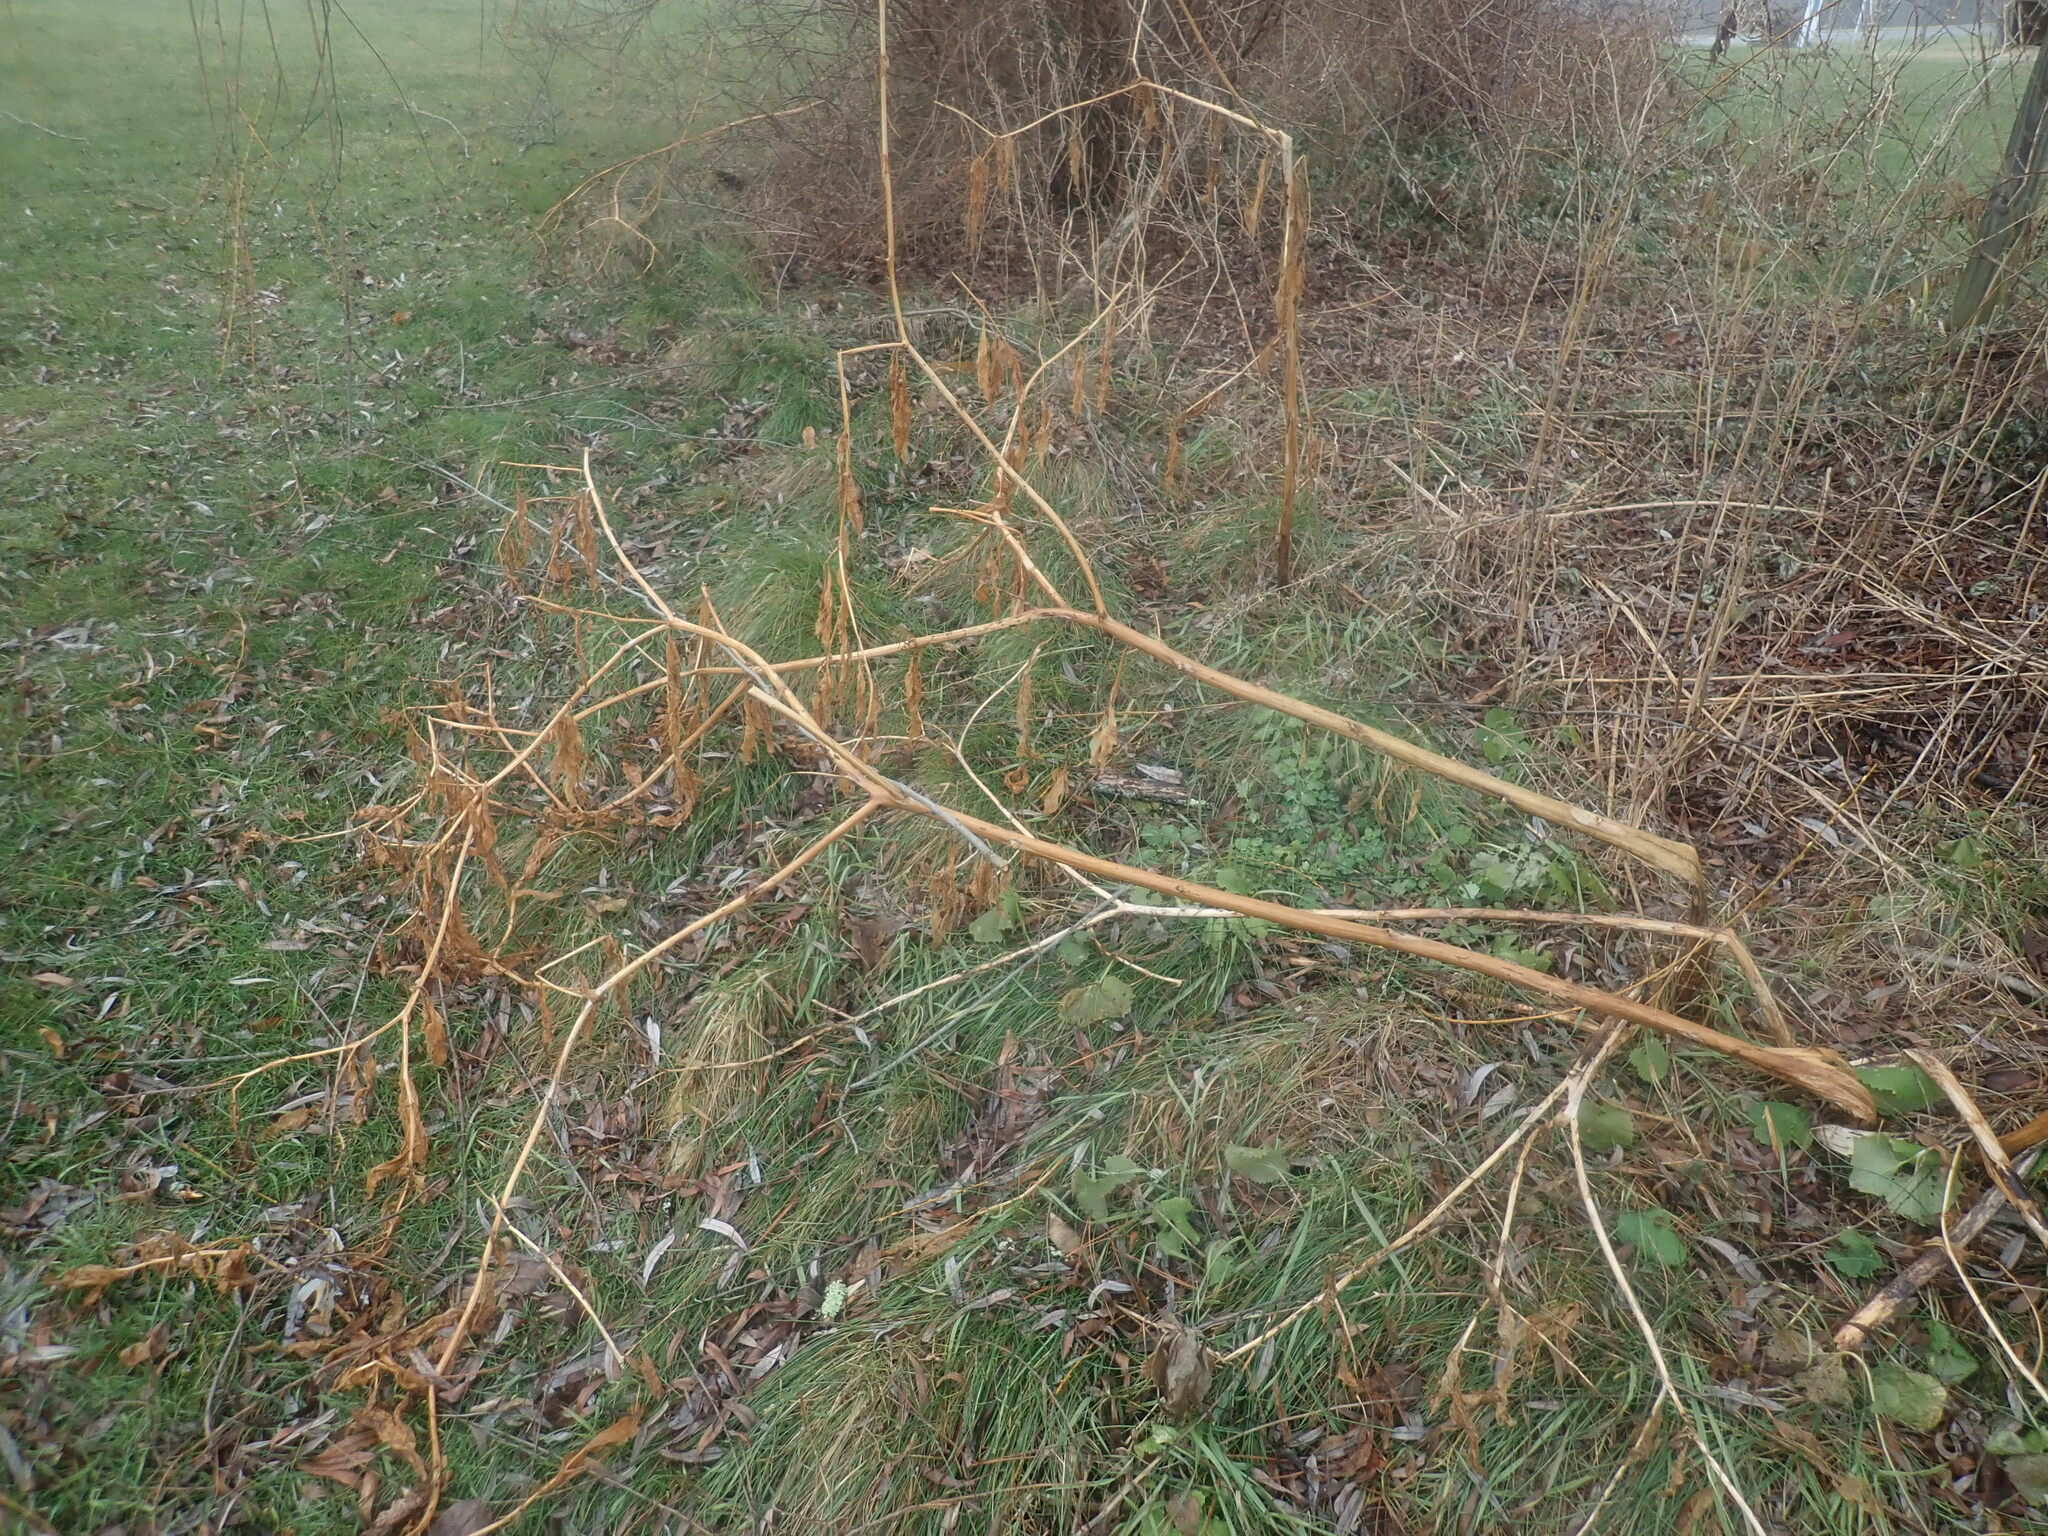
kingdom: Plantae
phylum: Tracheophyta
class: Magnoliopsida
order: Caryophyllales
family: Phytolaccaceae
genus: Phytolacca
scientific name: Phytolacca americana
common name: American pokeweed
